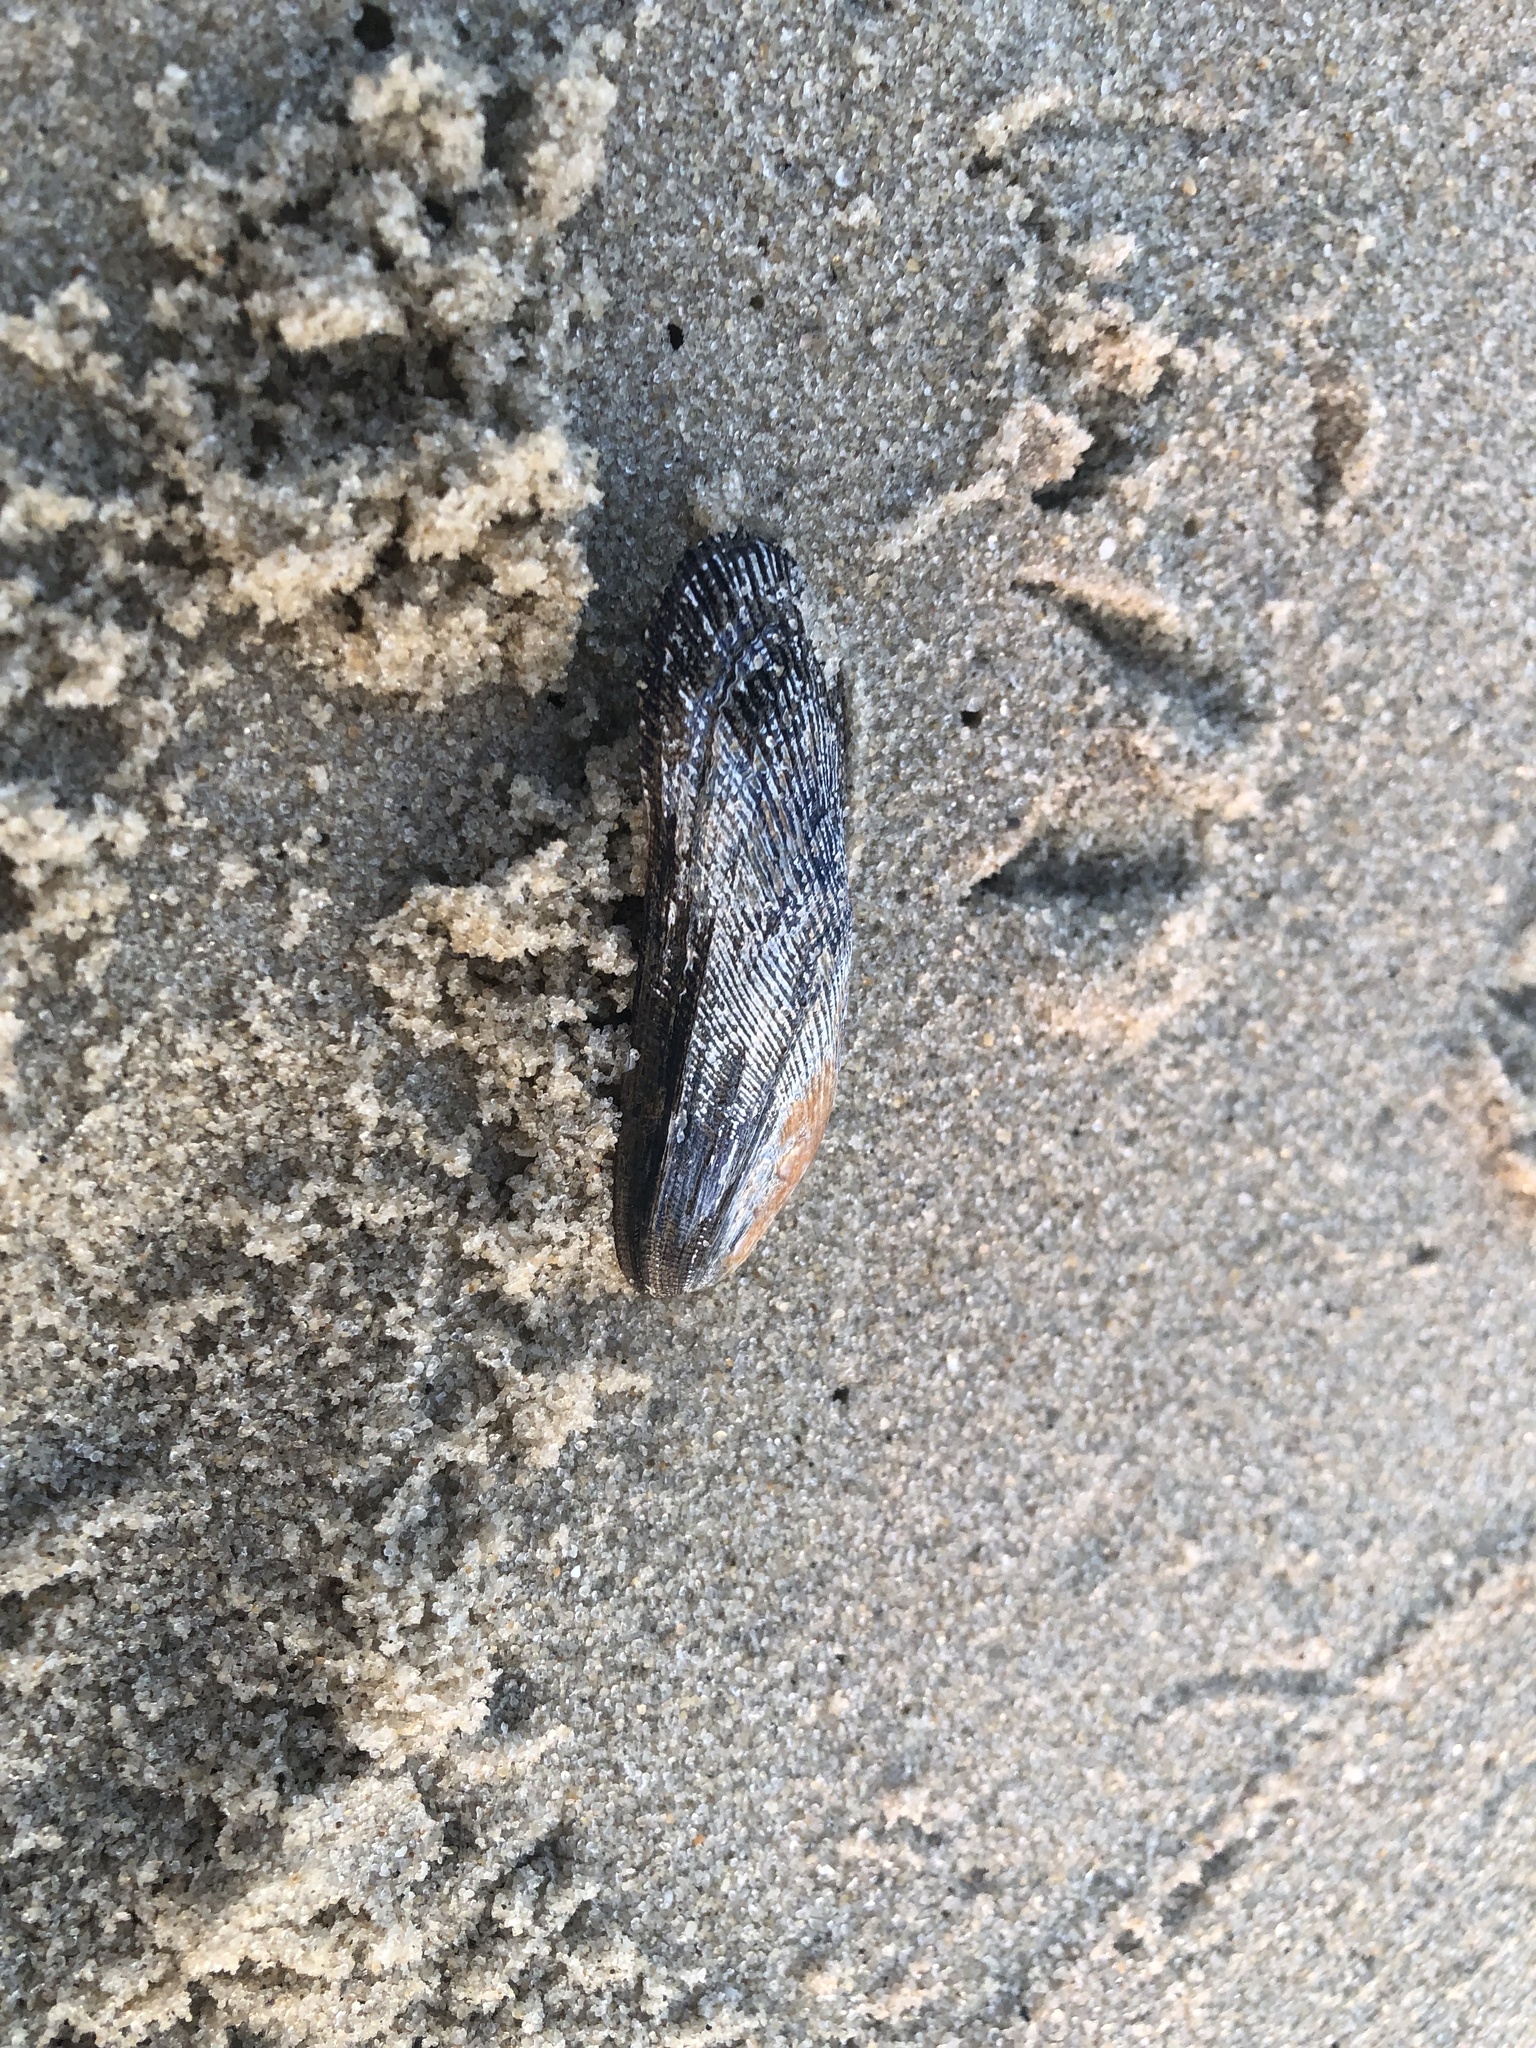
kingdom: Animalia
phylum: Mollusca
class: Bivalvia
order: Mytilida
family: Mytilidae
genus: Geukensia
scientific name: Geukensia demissa
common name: Ribbed mussel
